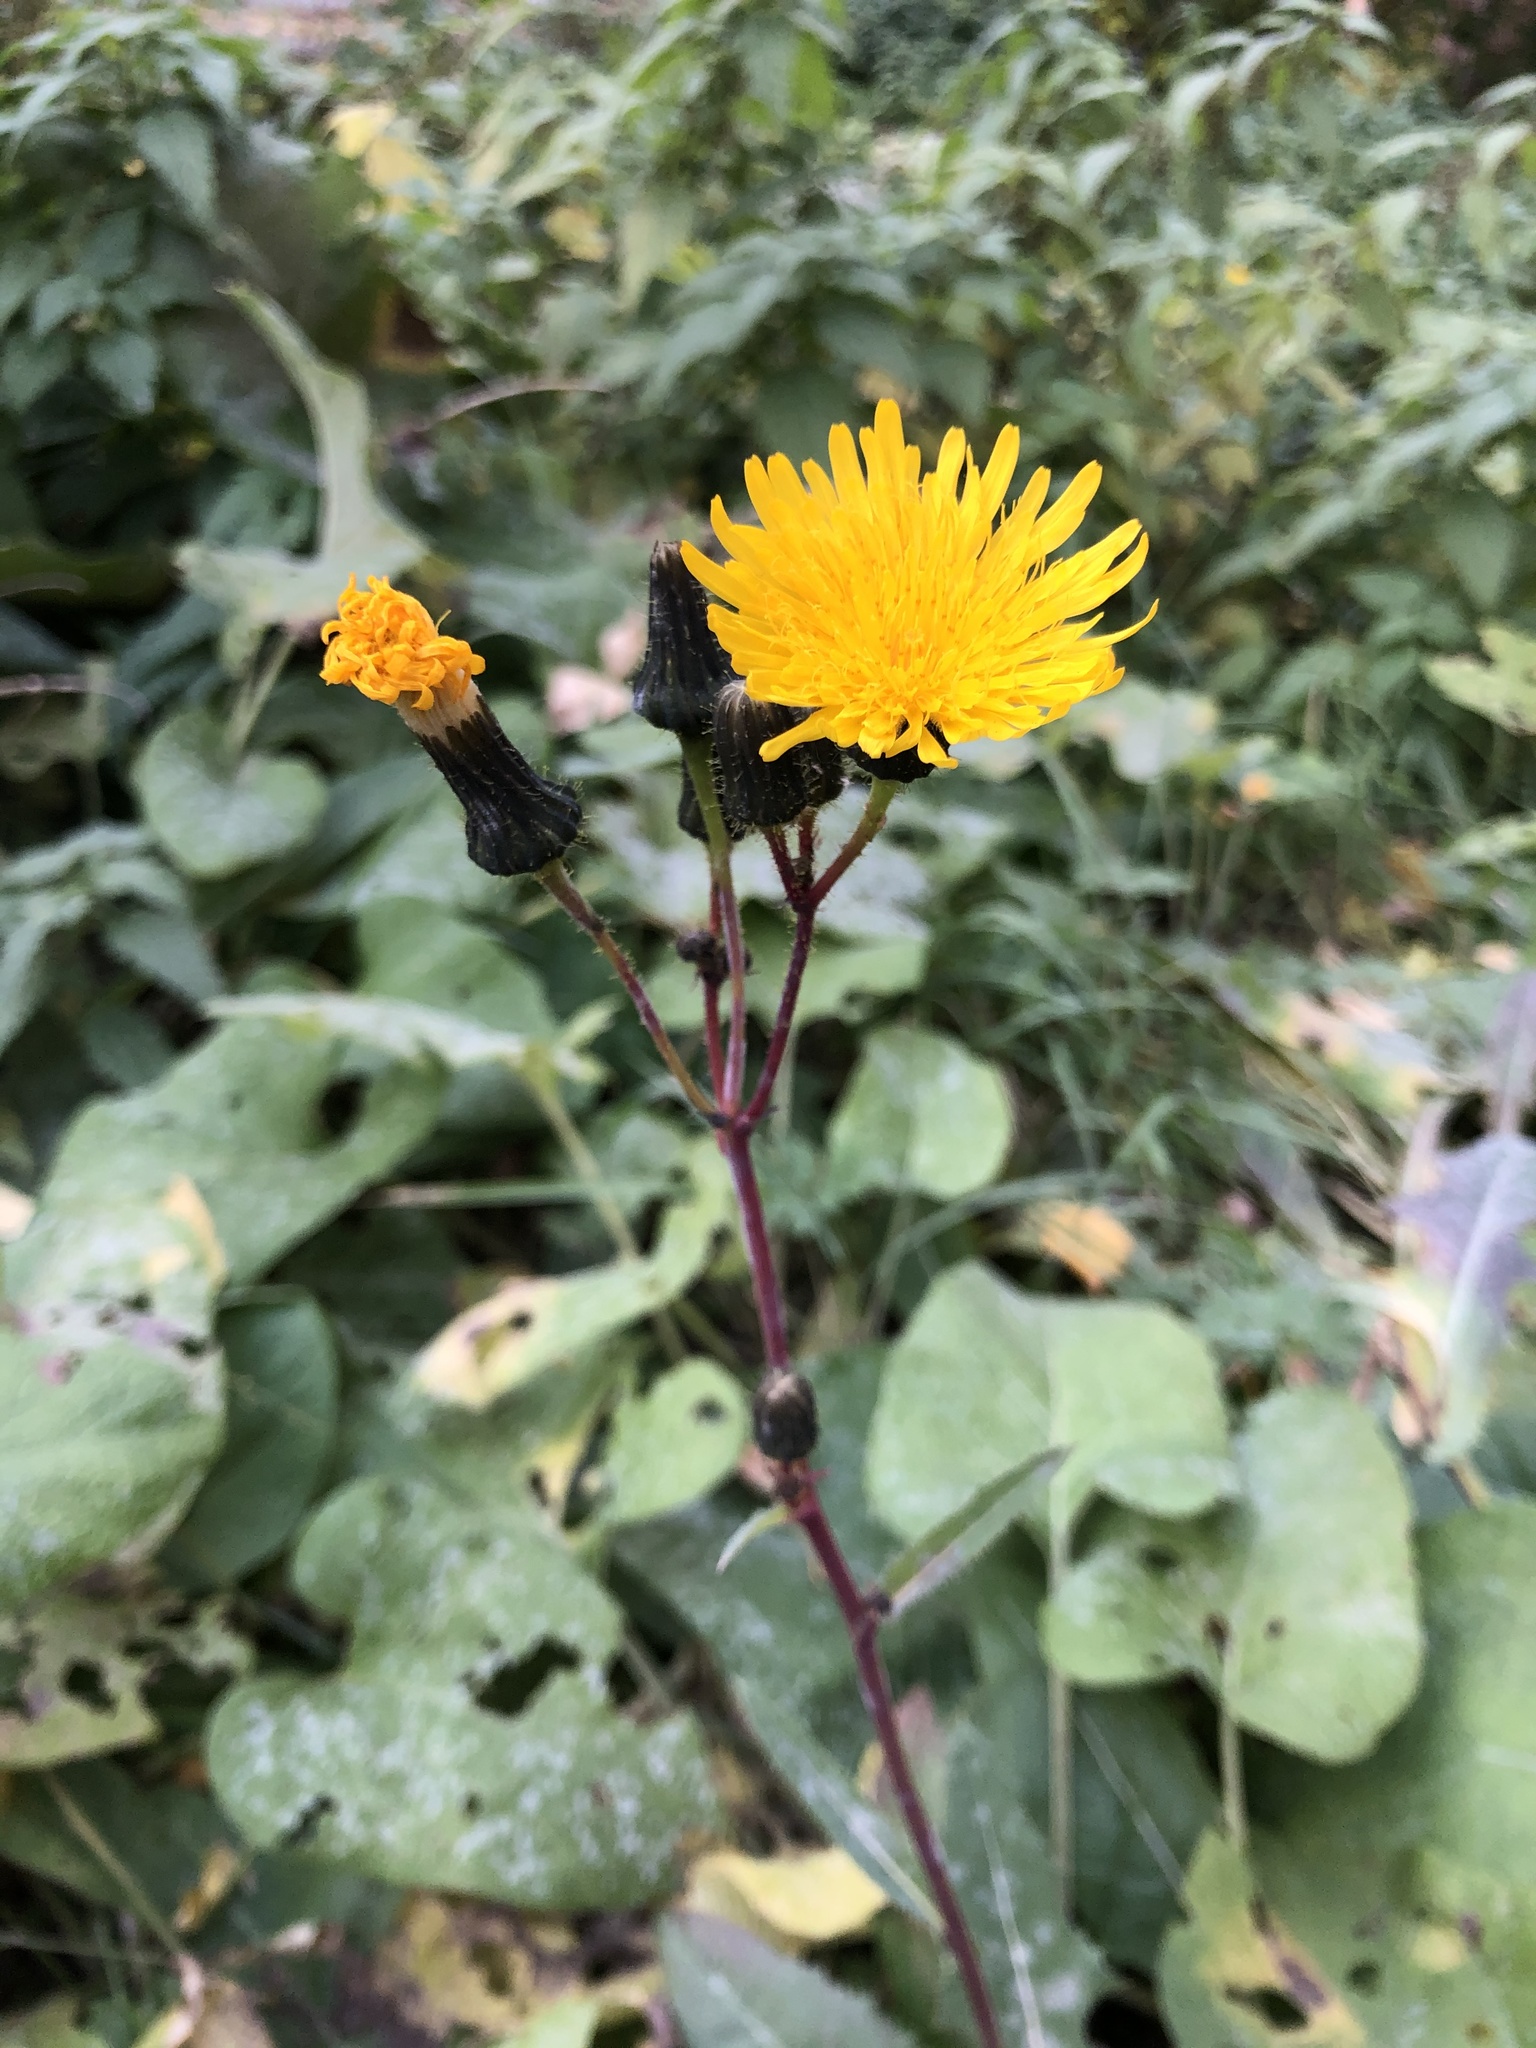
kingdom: Plantae
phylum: Tracheophyta
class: Magnoliopsida
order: Asterales
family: Asteraceae
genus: Sonchus
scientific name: Sonchus arvensis
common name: Perennial sow-thistle
